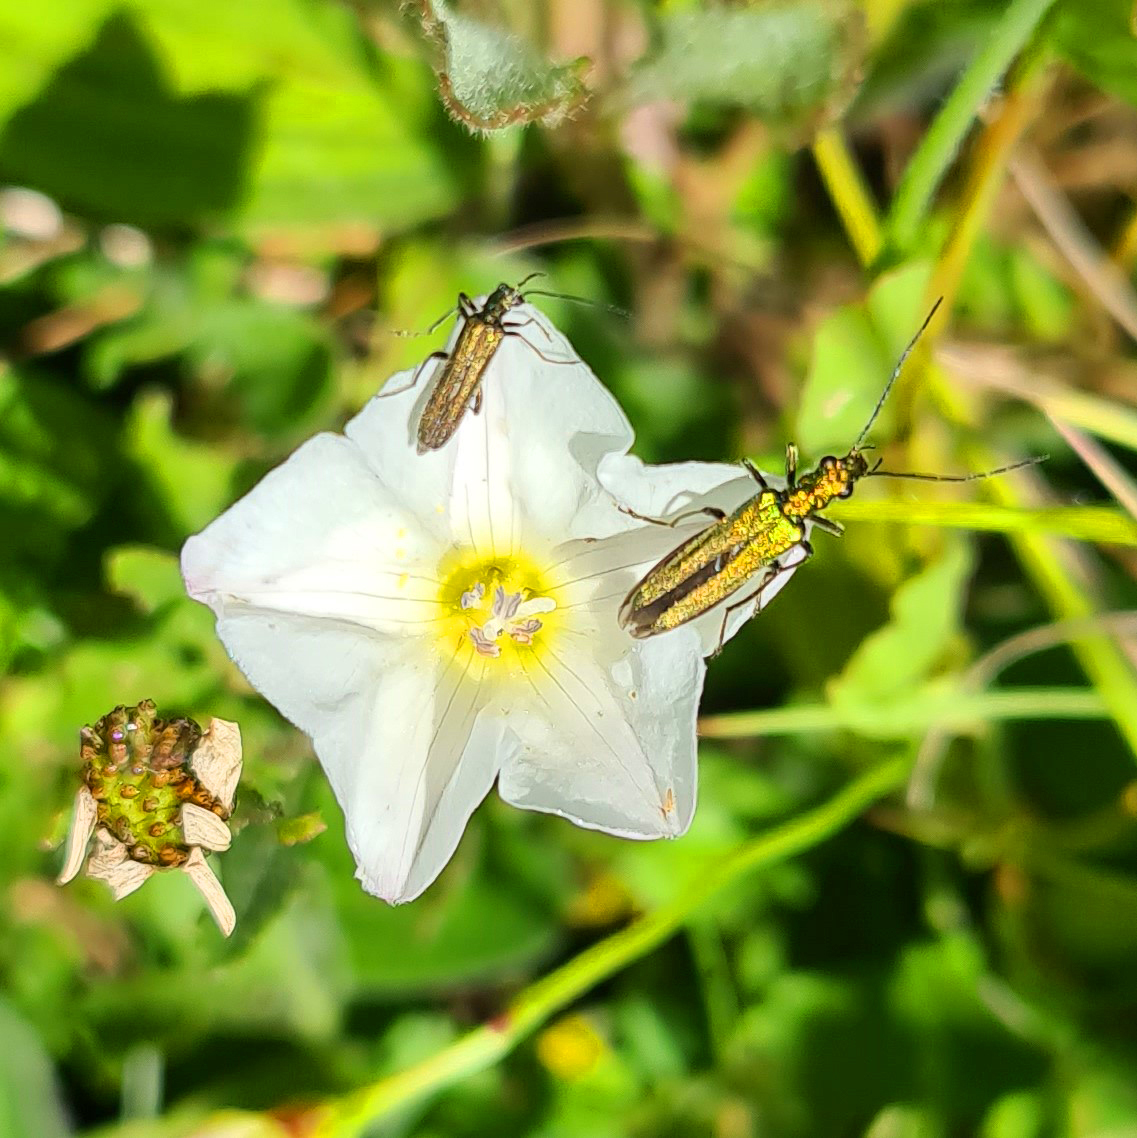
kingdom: Animalia
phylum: Arthropoda
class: Insecta
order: Coleoptera
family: Oedemeridae
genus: Oedemera
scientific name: Oedemera nobilis
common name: Swollen-thighed beetle
